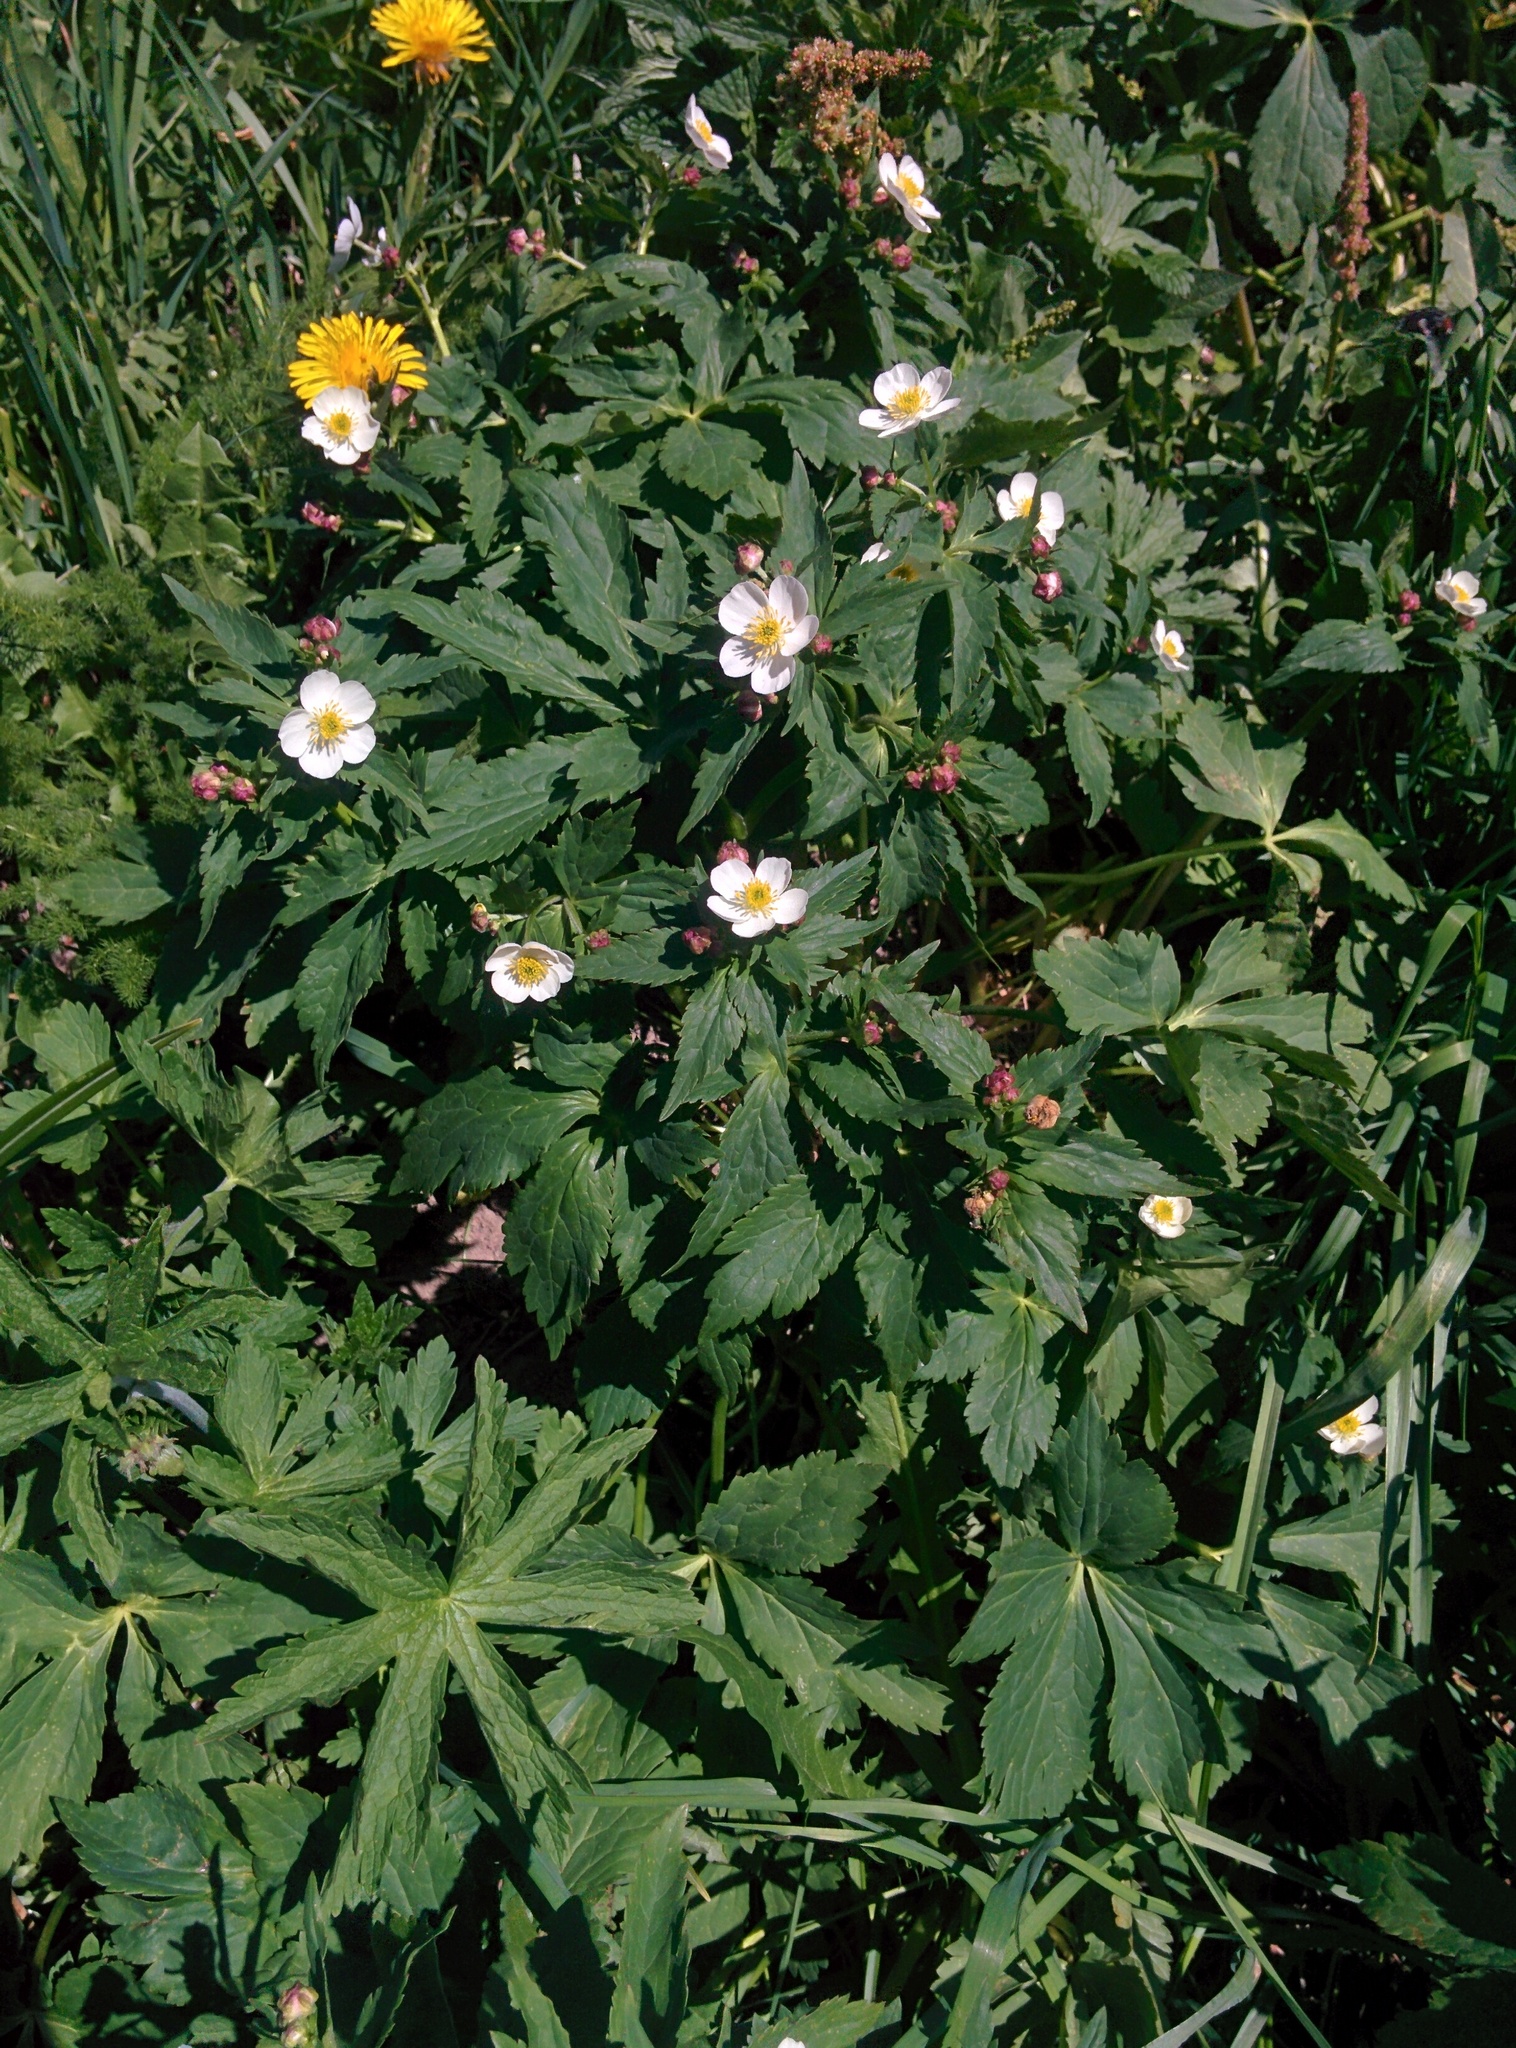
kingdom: Plantae
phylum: Tracheophyta
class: Magnoliopsida
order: Ranunculales
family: Ranunculaceae
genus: Ranunculus
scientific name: Ranunculus aconitifolius
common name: Aconite-leaved buttercup
